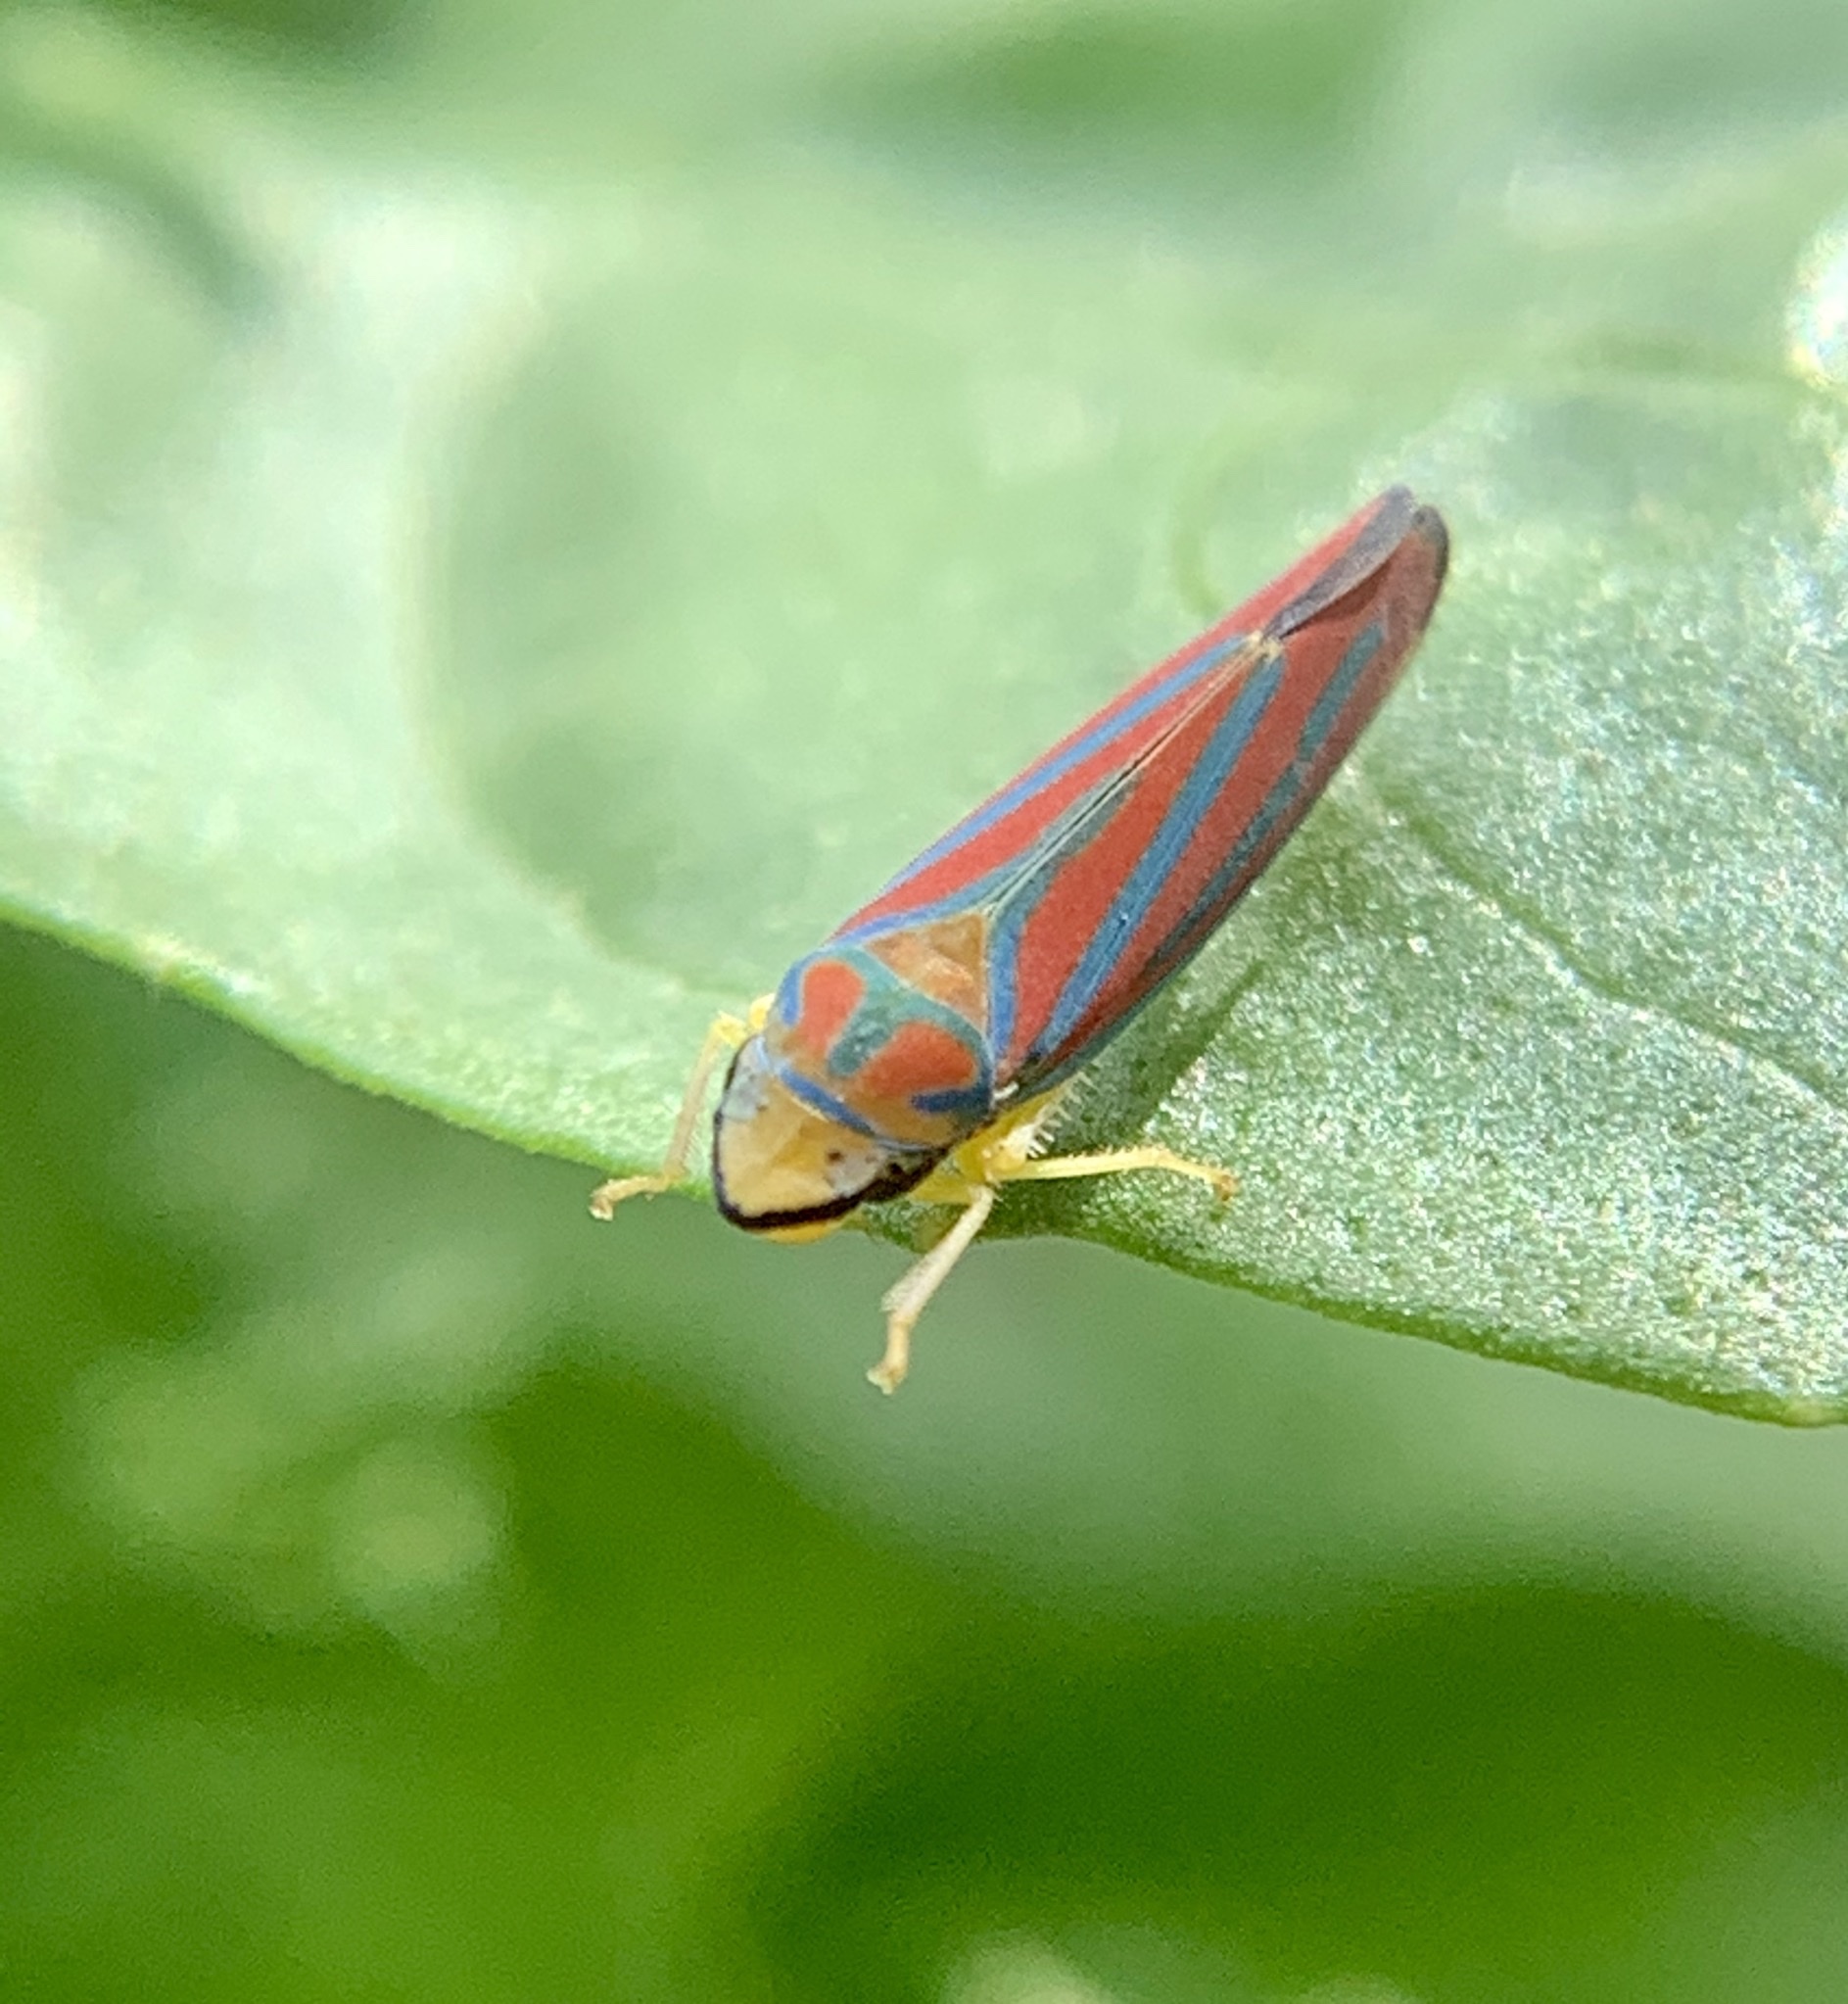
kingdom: Animalia
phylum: Arthropoda
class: Insecta
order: Hemiptera
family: Cicadellidae
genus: Graphocephala
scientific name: Graphocephala coccinea
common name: Candy-striped leafhopper
